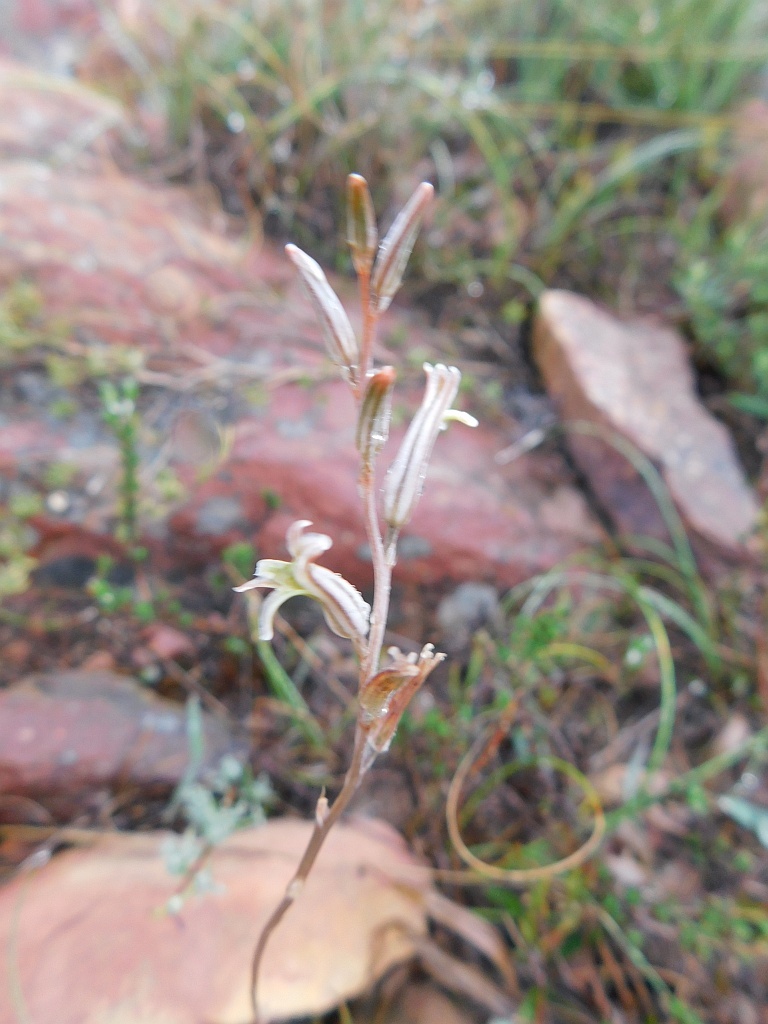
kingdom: Plantae
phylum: Tracheophyta
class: Liliopsida
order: Asparagales
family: Asphodelaceae
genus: Haworthia
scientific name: Haworthia mirabilis
